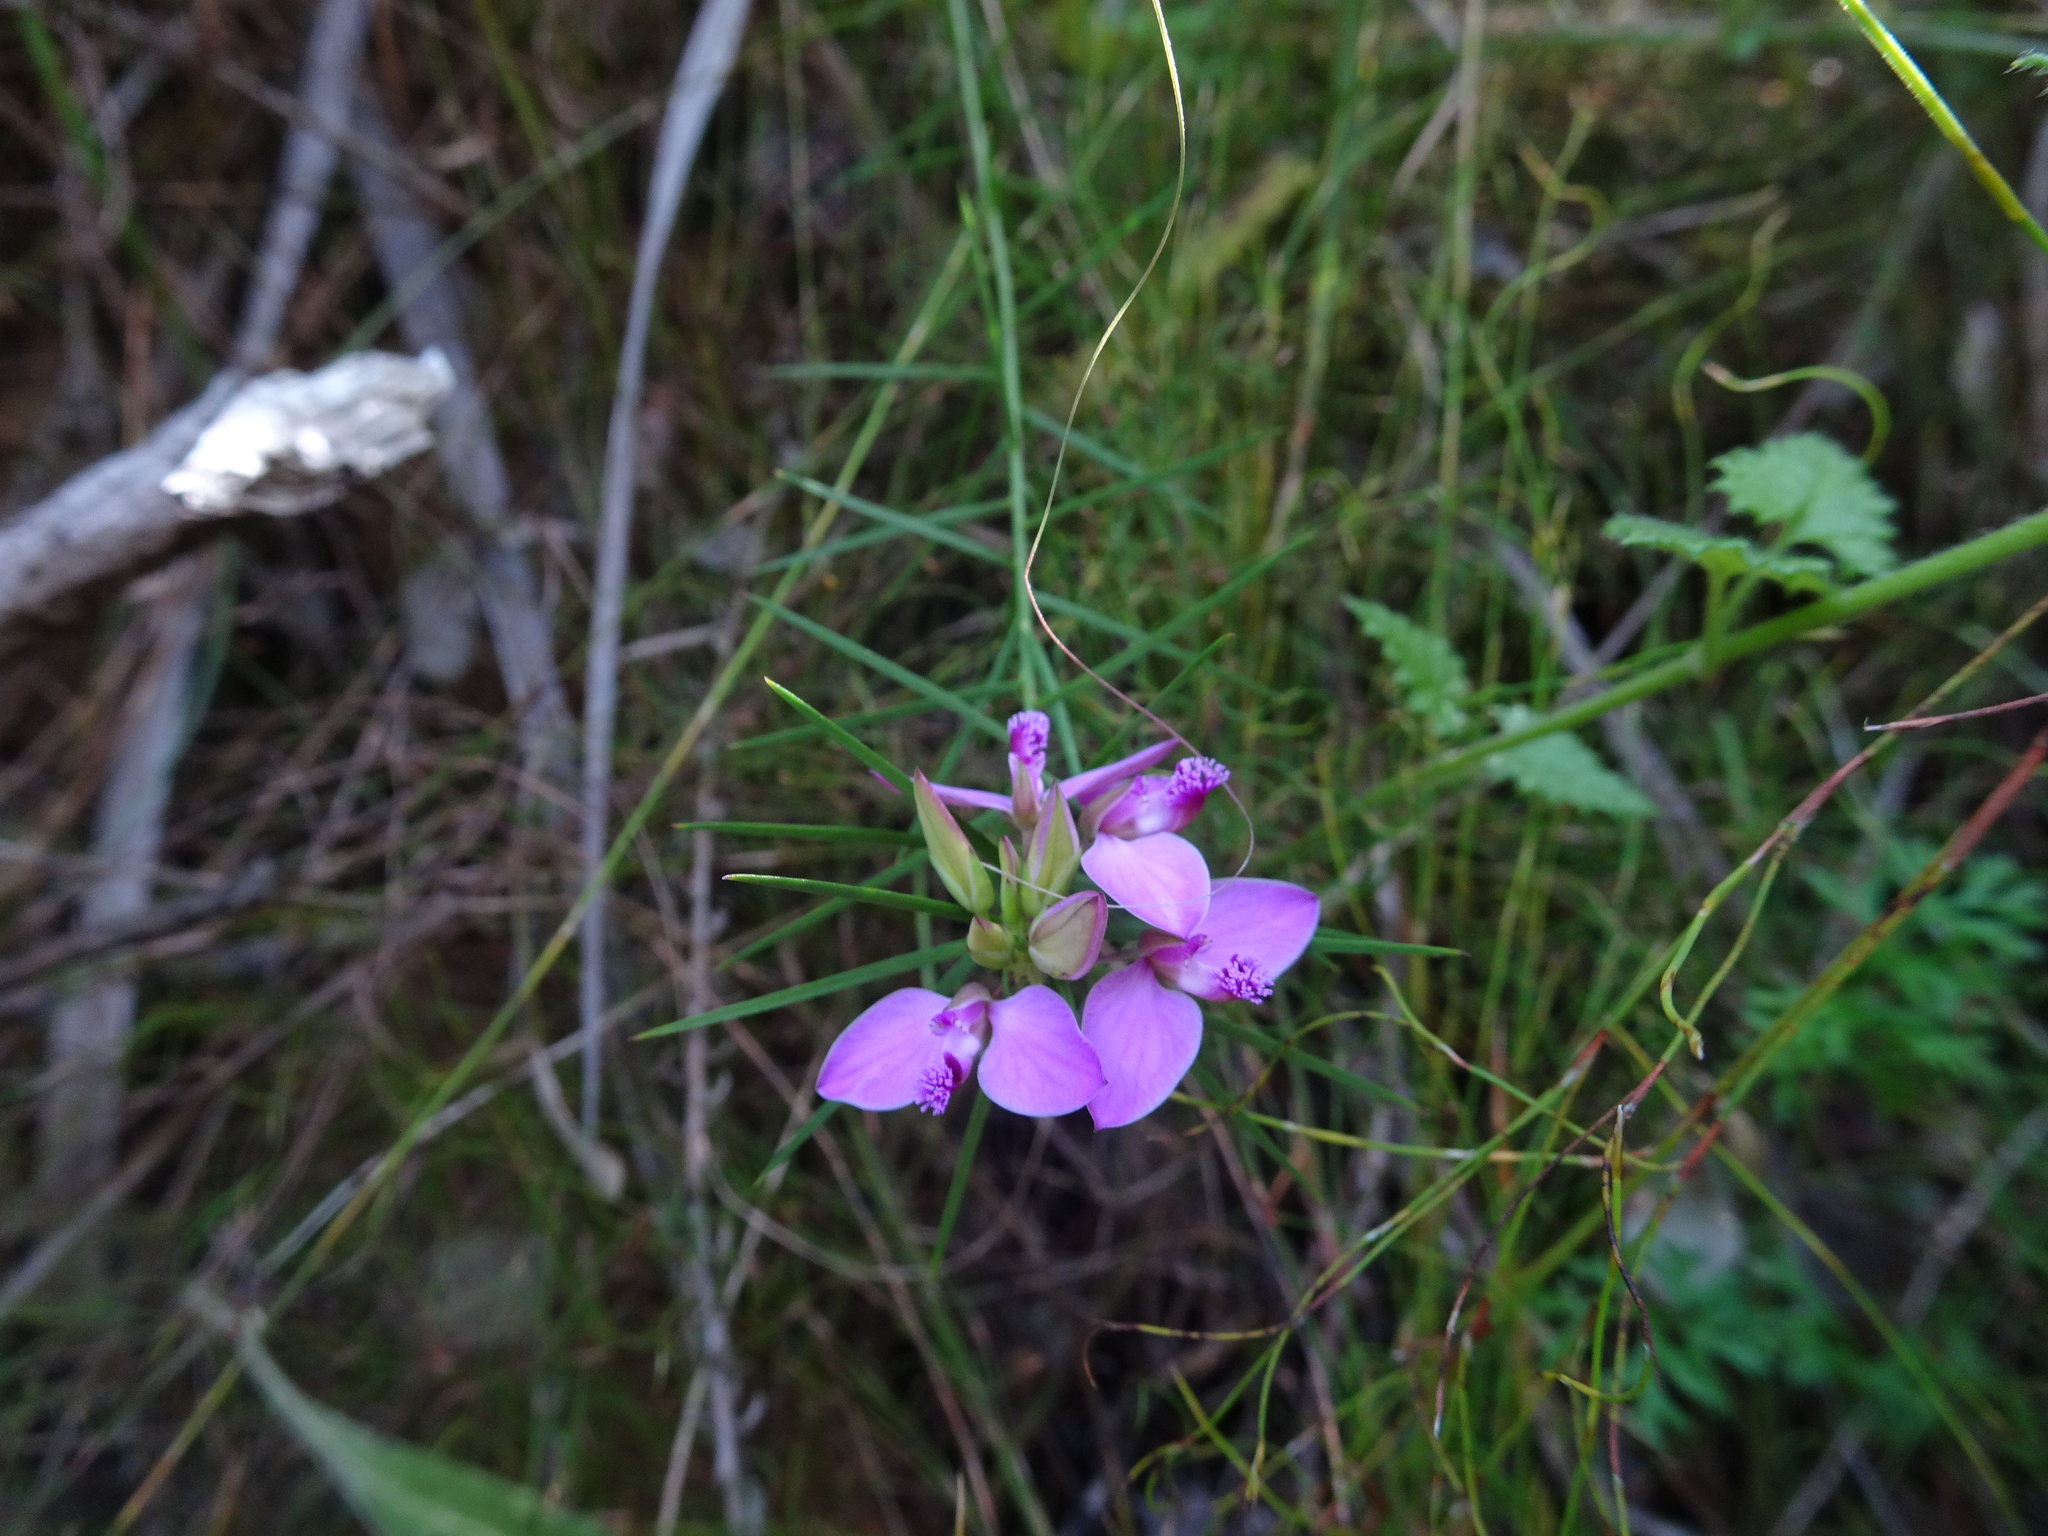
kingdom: Plantae
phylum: Tracheophyta
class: Magnoliopsida
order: Fabales
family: Polygalaceae
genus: Polygala
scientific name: Polygala umbellata
